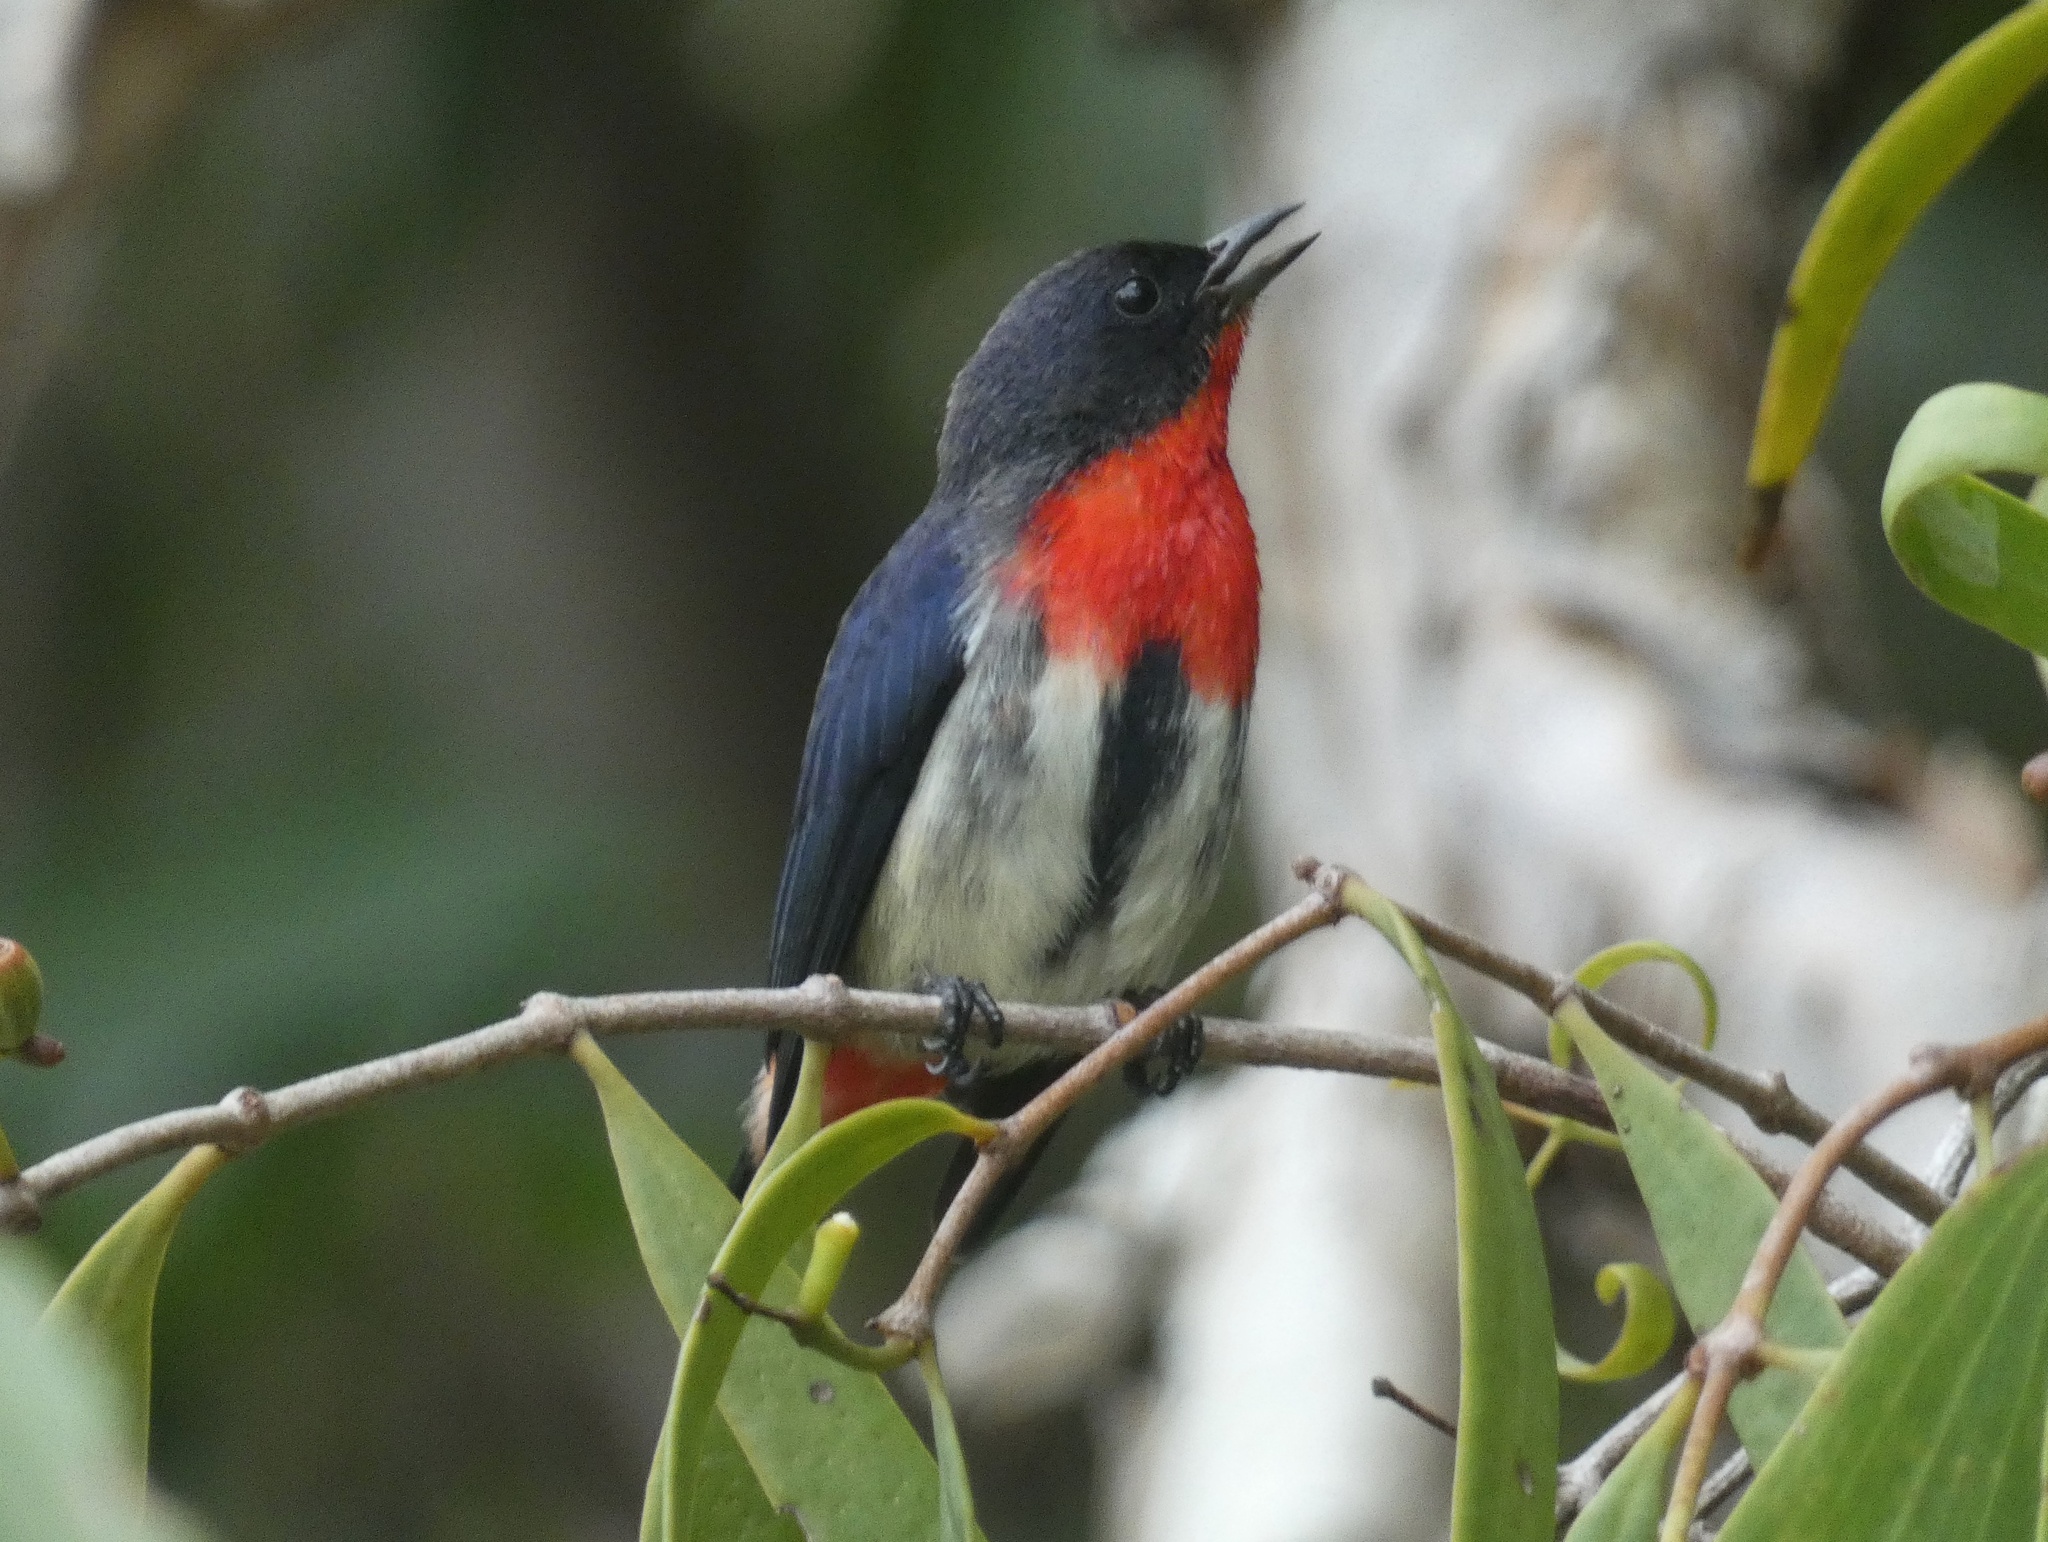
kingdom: Animalia
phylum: Chordata
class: Aves
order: Passeriformes
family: Dicaeidae
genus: Dicaeum
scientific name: Dicaeum hirundinaceum
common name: Mistletoebird
